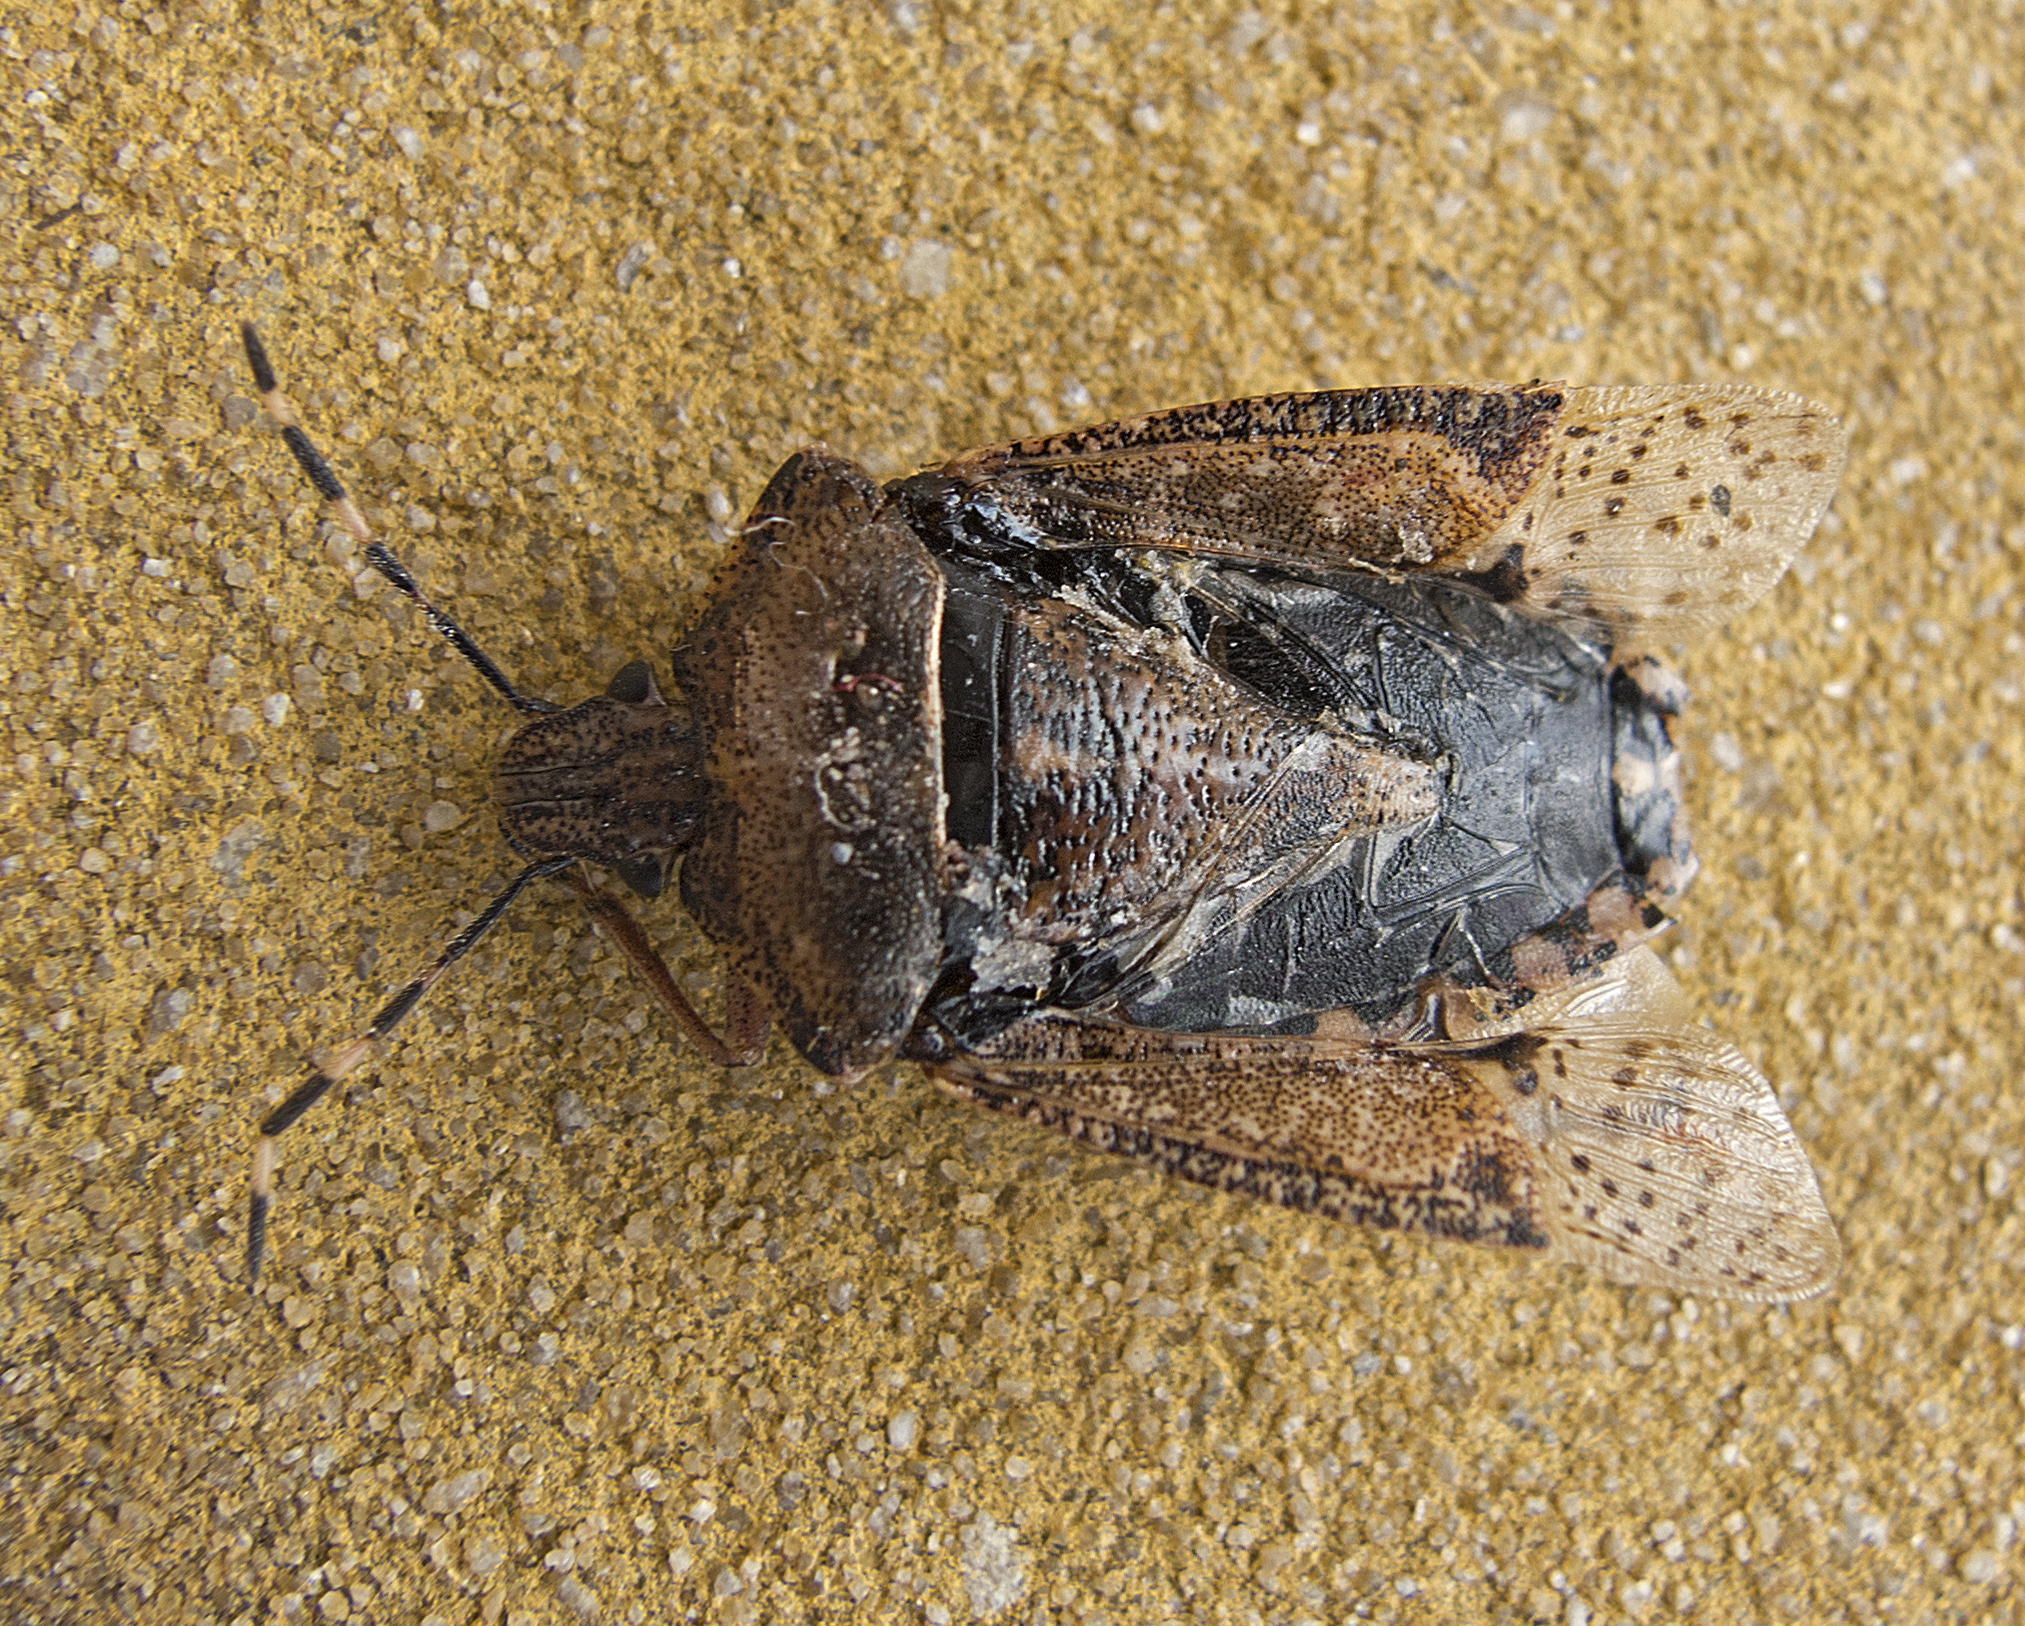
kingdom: Animalia
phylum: Arthropoda
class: Insecta
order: Hemiptera
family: Pentatomidae
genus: Rhaphigaster
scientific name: Rhaphigaster nebulosa
